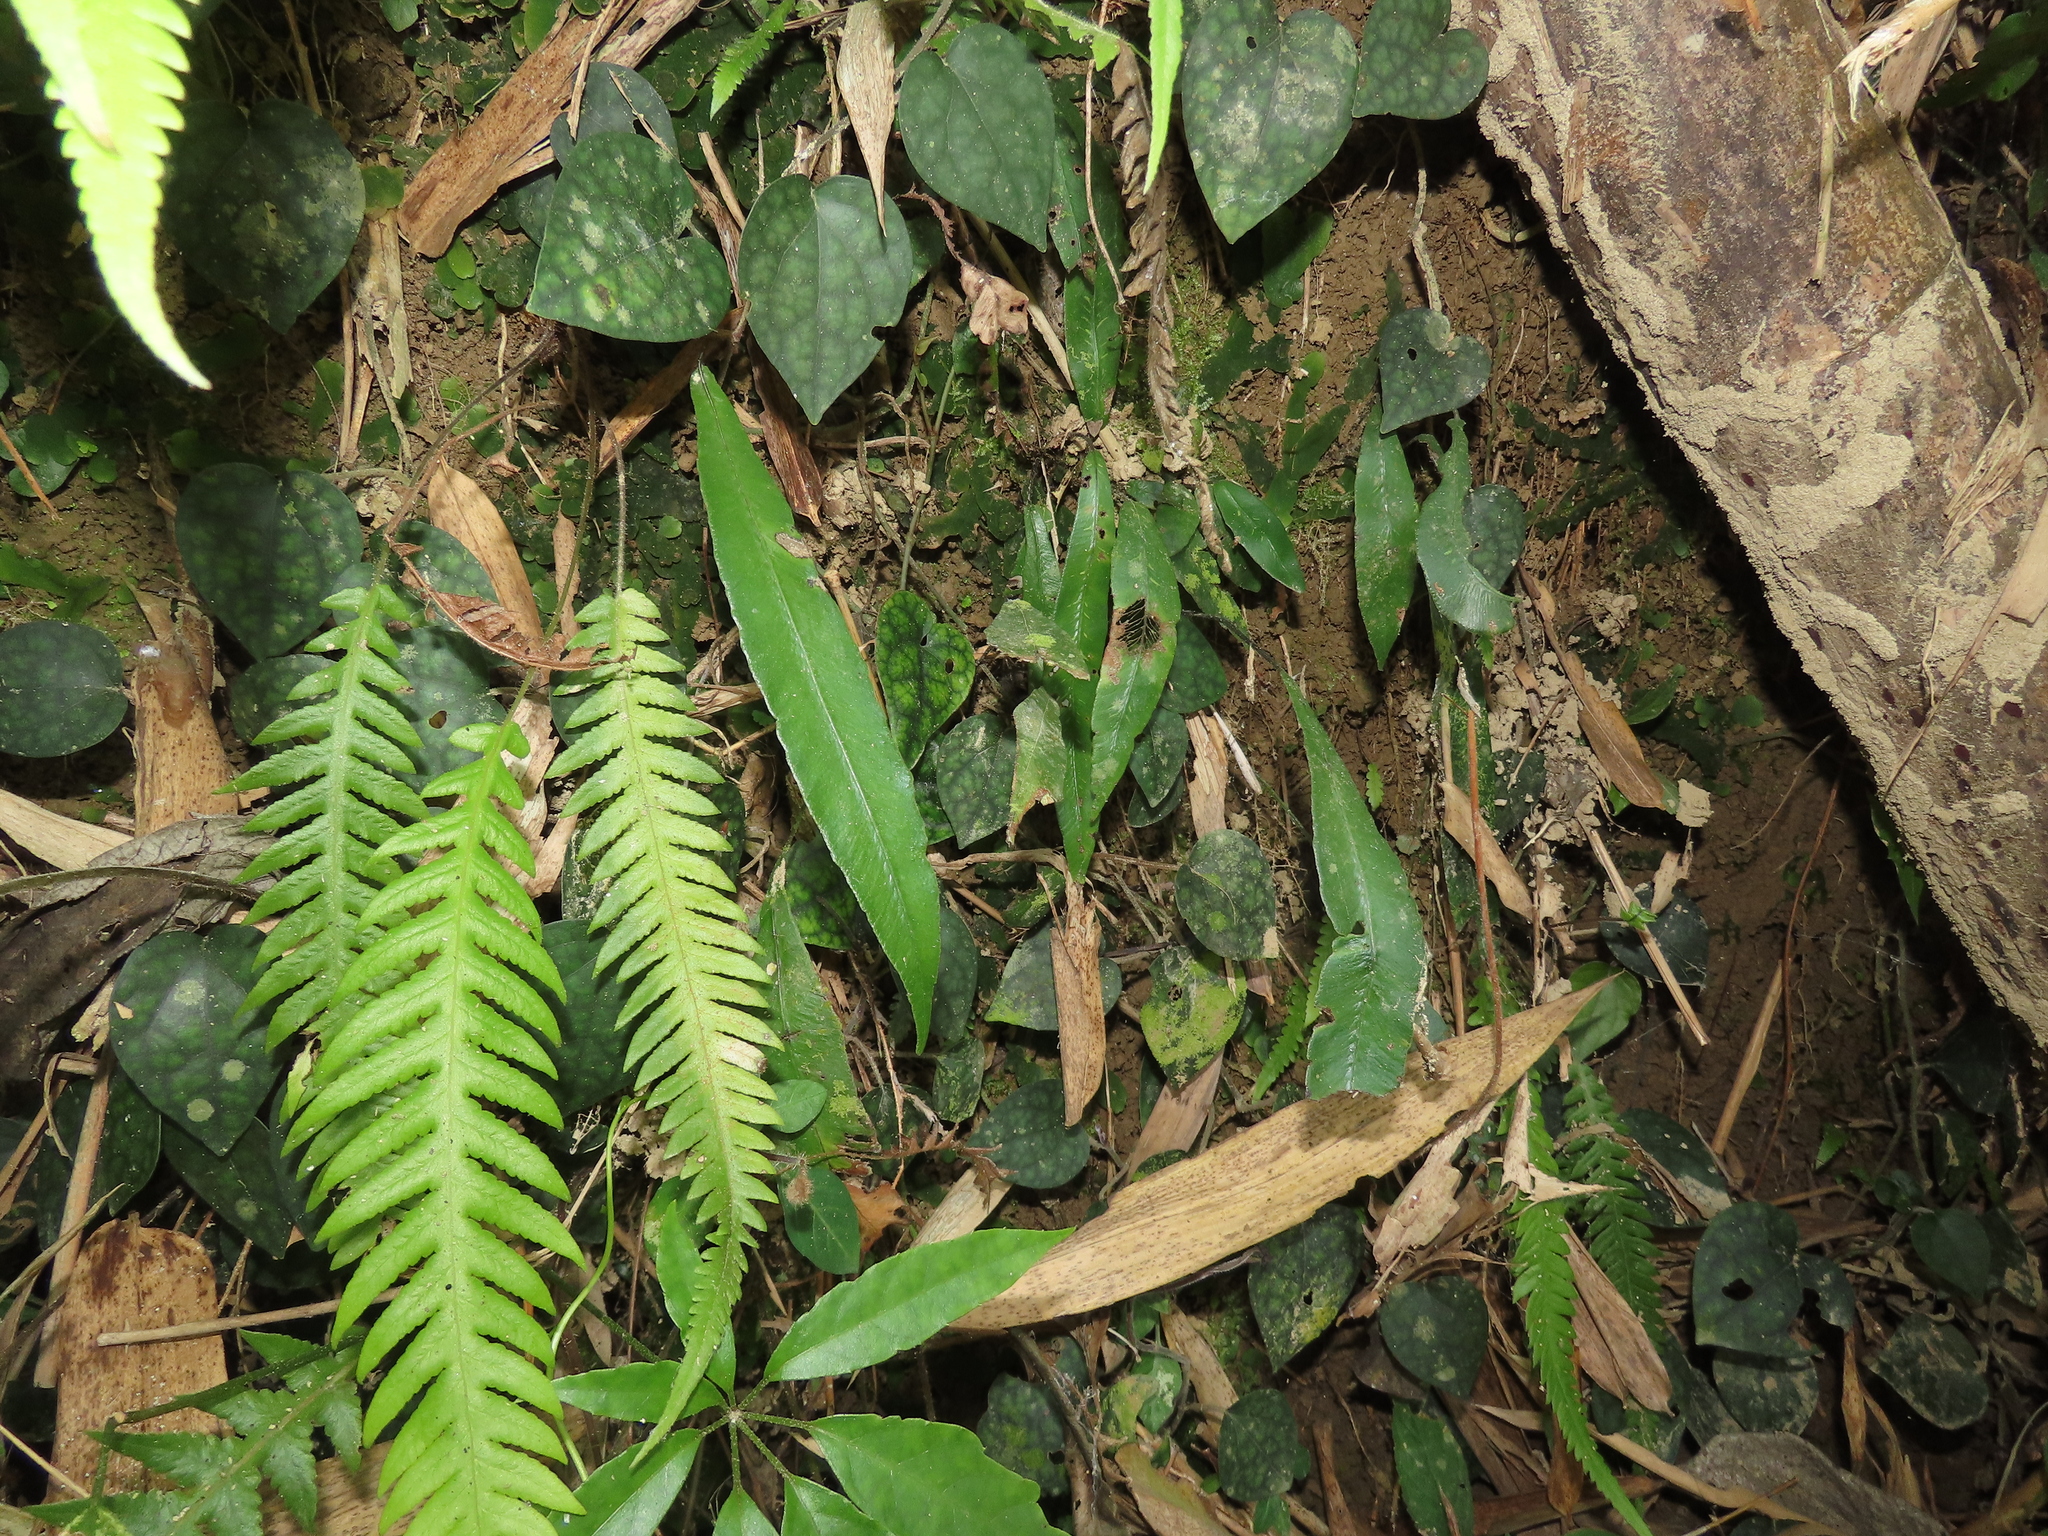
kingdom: Plantae
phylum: Tracheophyta
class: Polypodiopsida
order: Polypodiales
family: Thelypteridaceae
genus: Phegopteris
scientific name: Phegopteris decursive-pinnata
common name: Japanese beech fern
